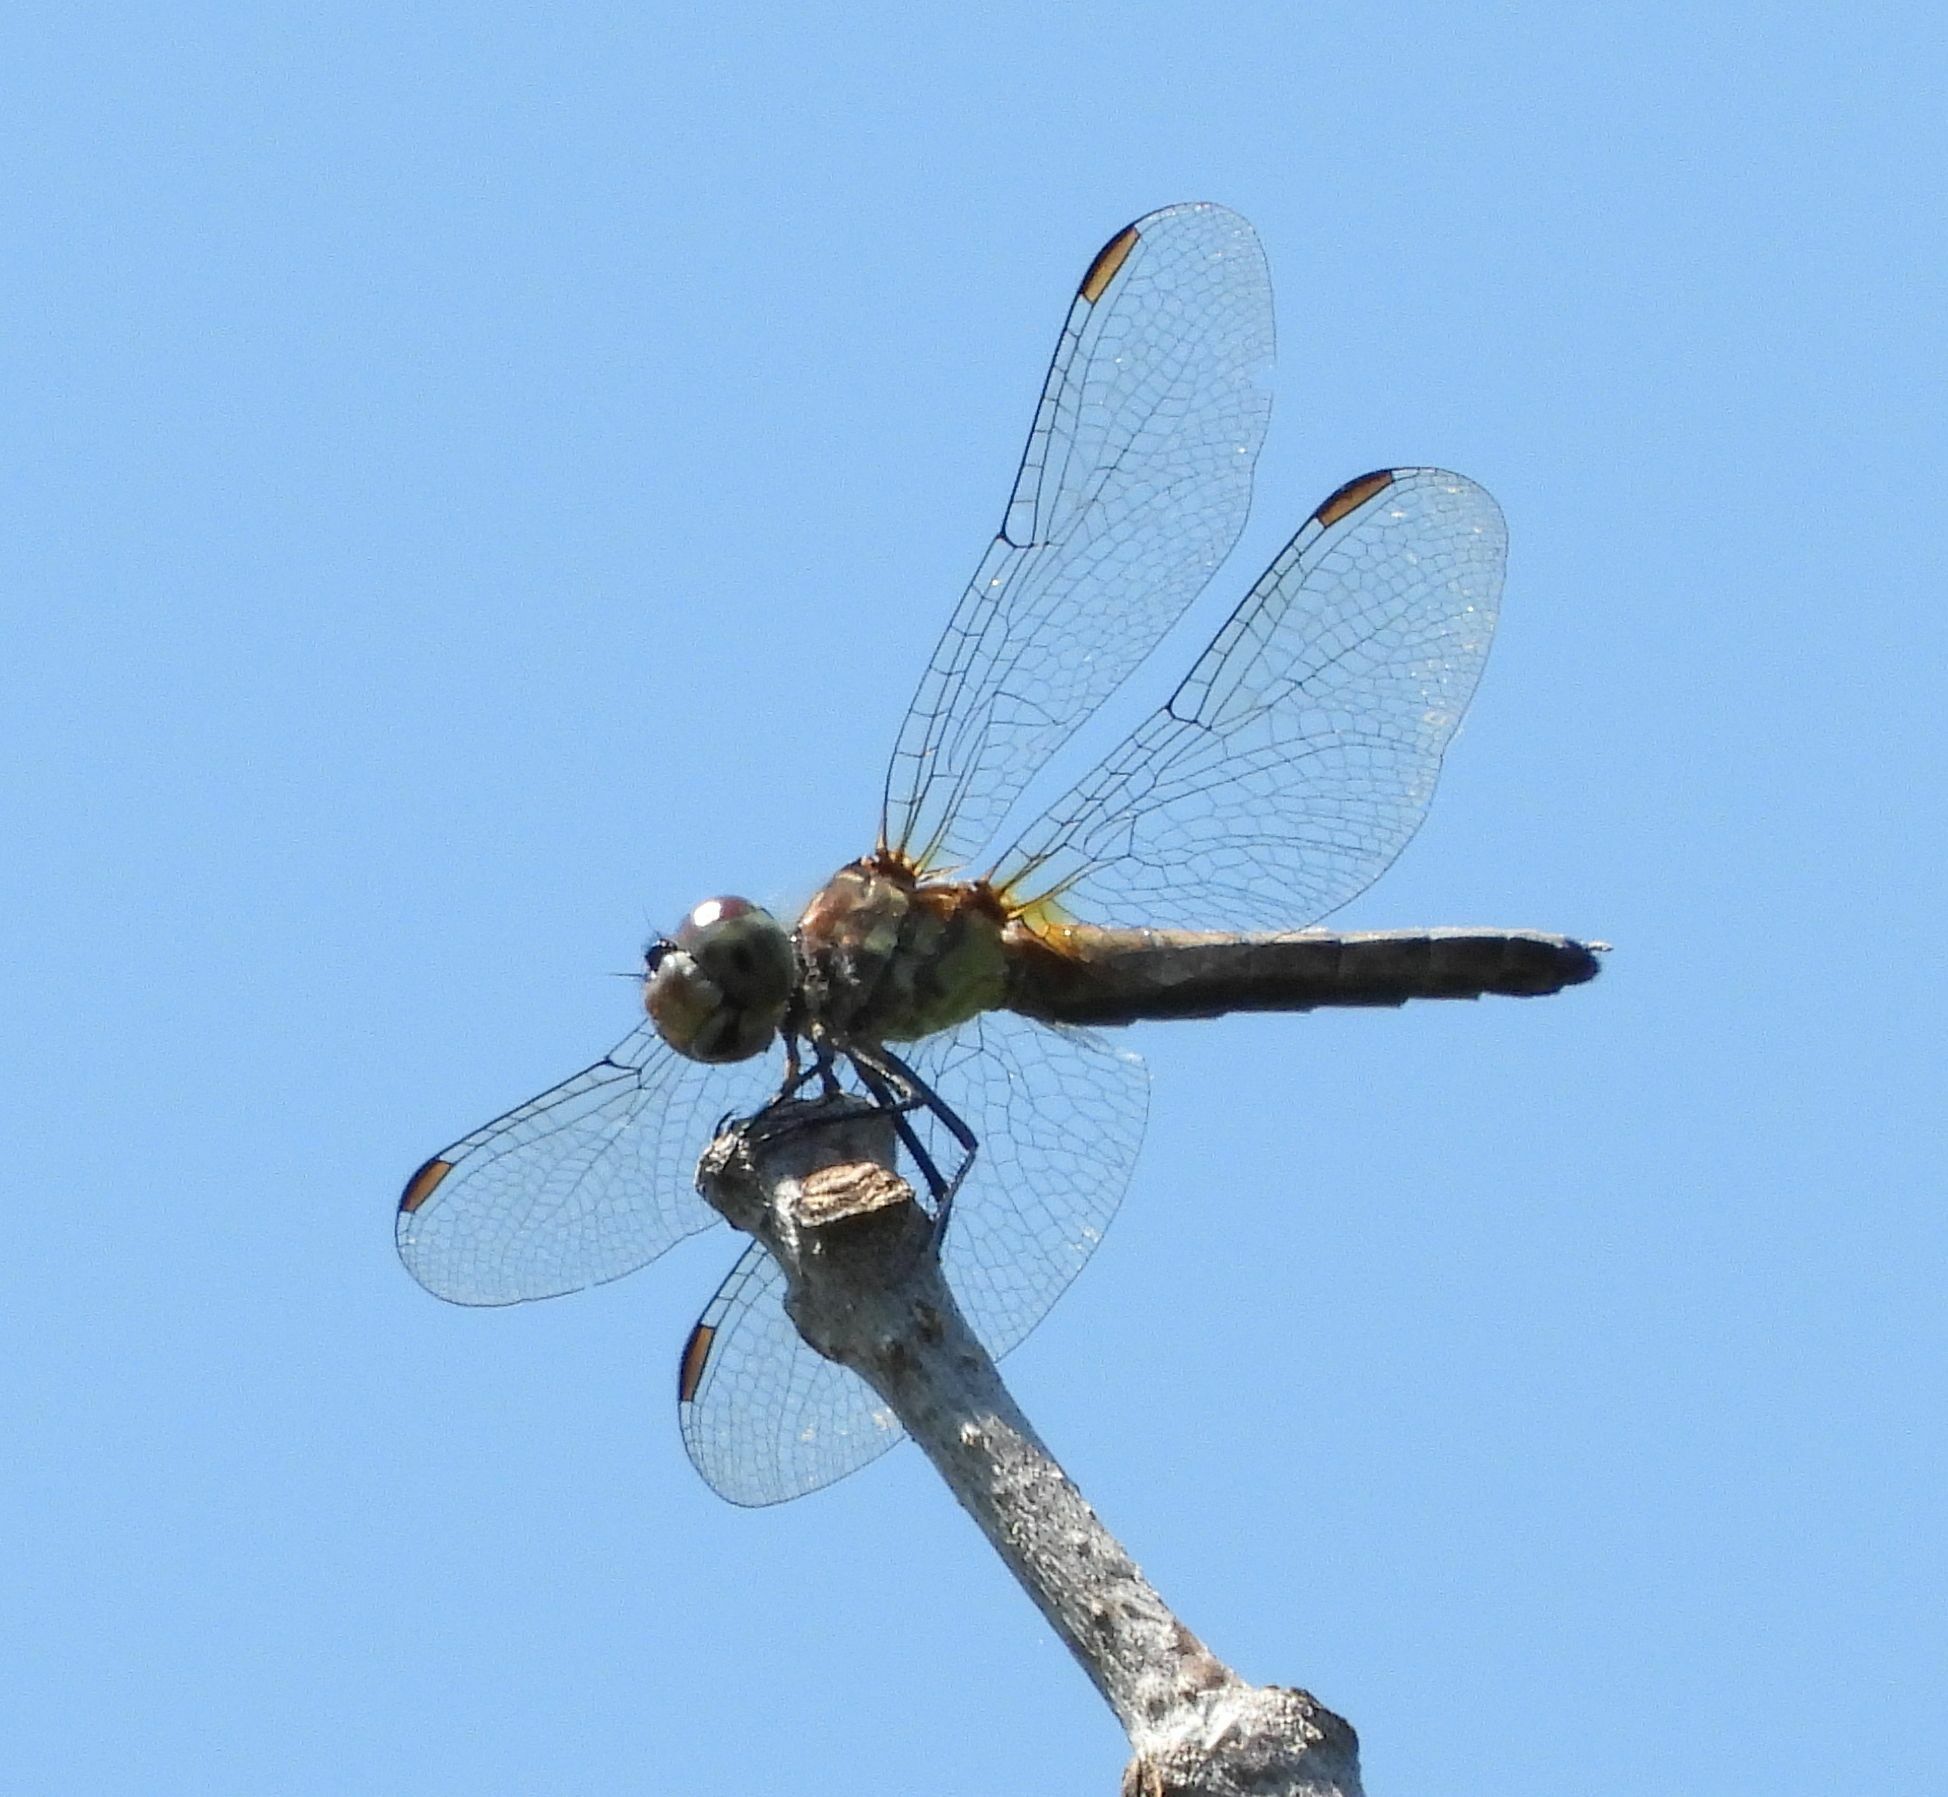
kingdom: Animalia
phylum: Arthropoda
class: Insecta
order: Odonata
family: Libellulidae
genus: Pachydiplax
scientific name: Pachydiplax longipennis
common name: Blue dasher
